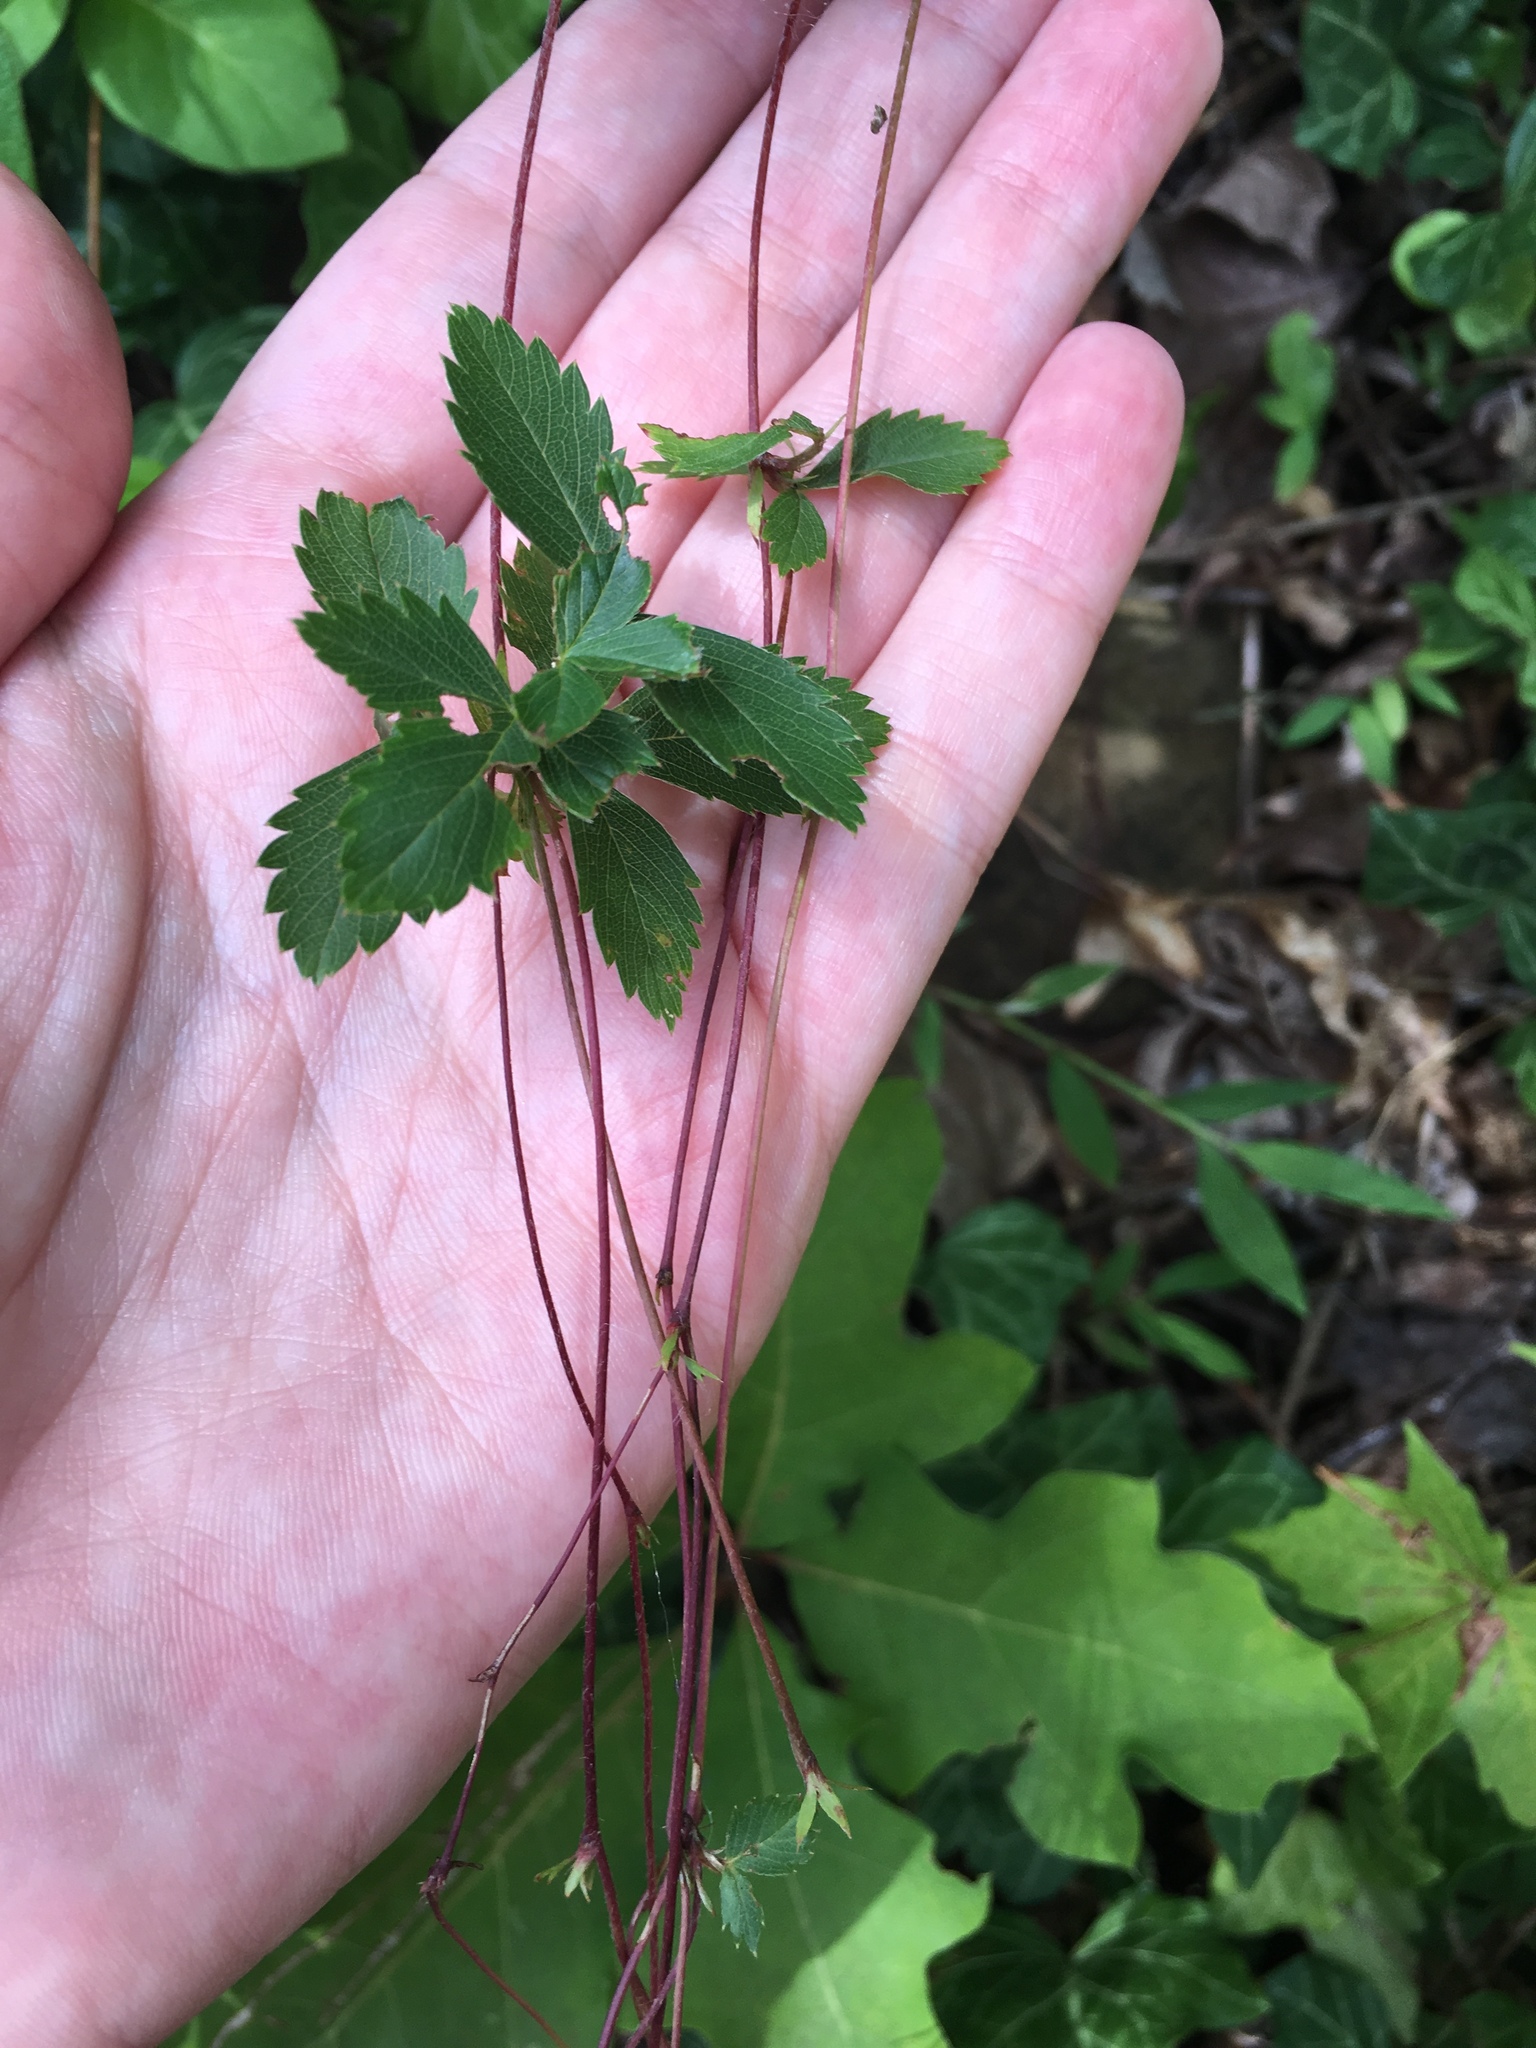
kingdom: Plantae
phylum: Tracheophyta
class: Magnoliopsida
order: Rosales
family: Rosaceae
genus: Potentilla
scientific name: Potentilla simplex
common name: Old field cinquefoil
